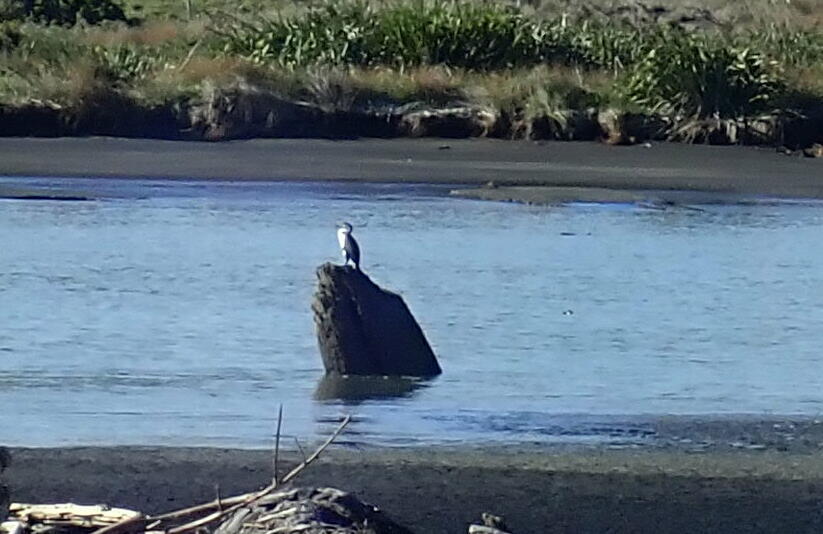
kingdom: Animalia
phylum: Chordata
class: Aves
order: Suliformes
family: Phalacrocoracidae
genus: Microcarbo
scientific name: Microcarbo melanoleucos
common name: Little pied cormorant
